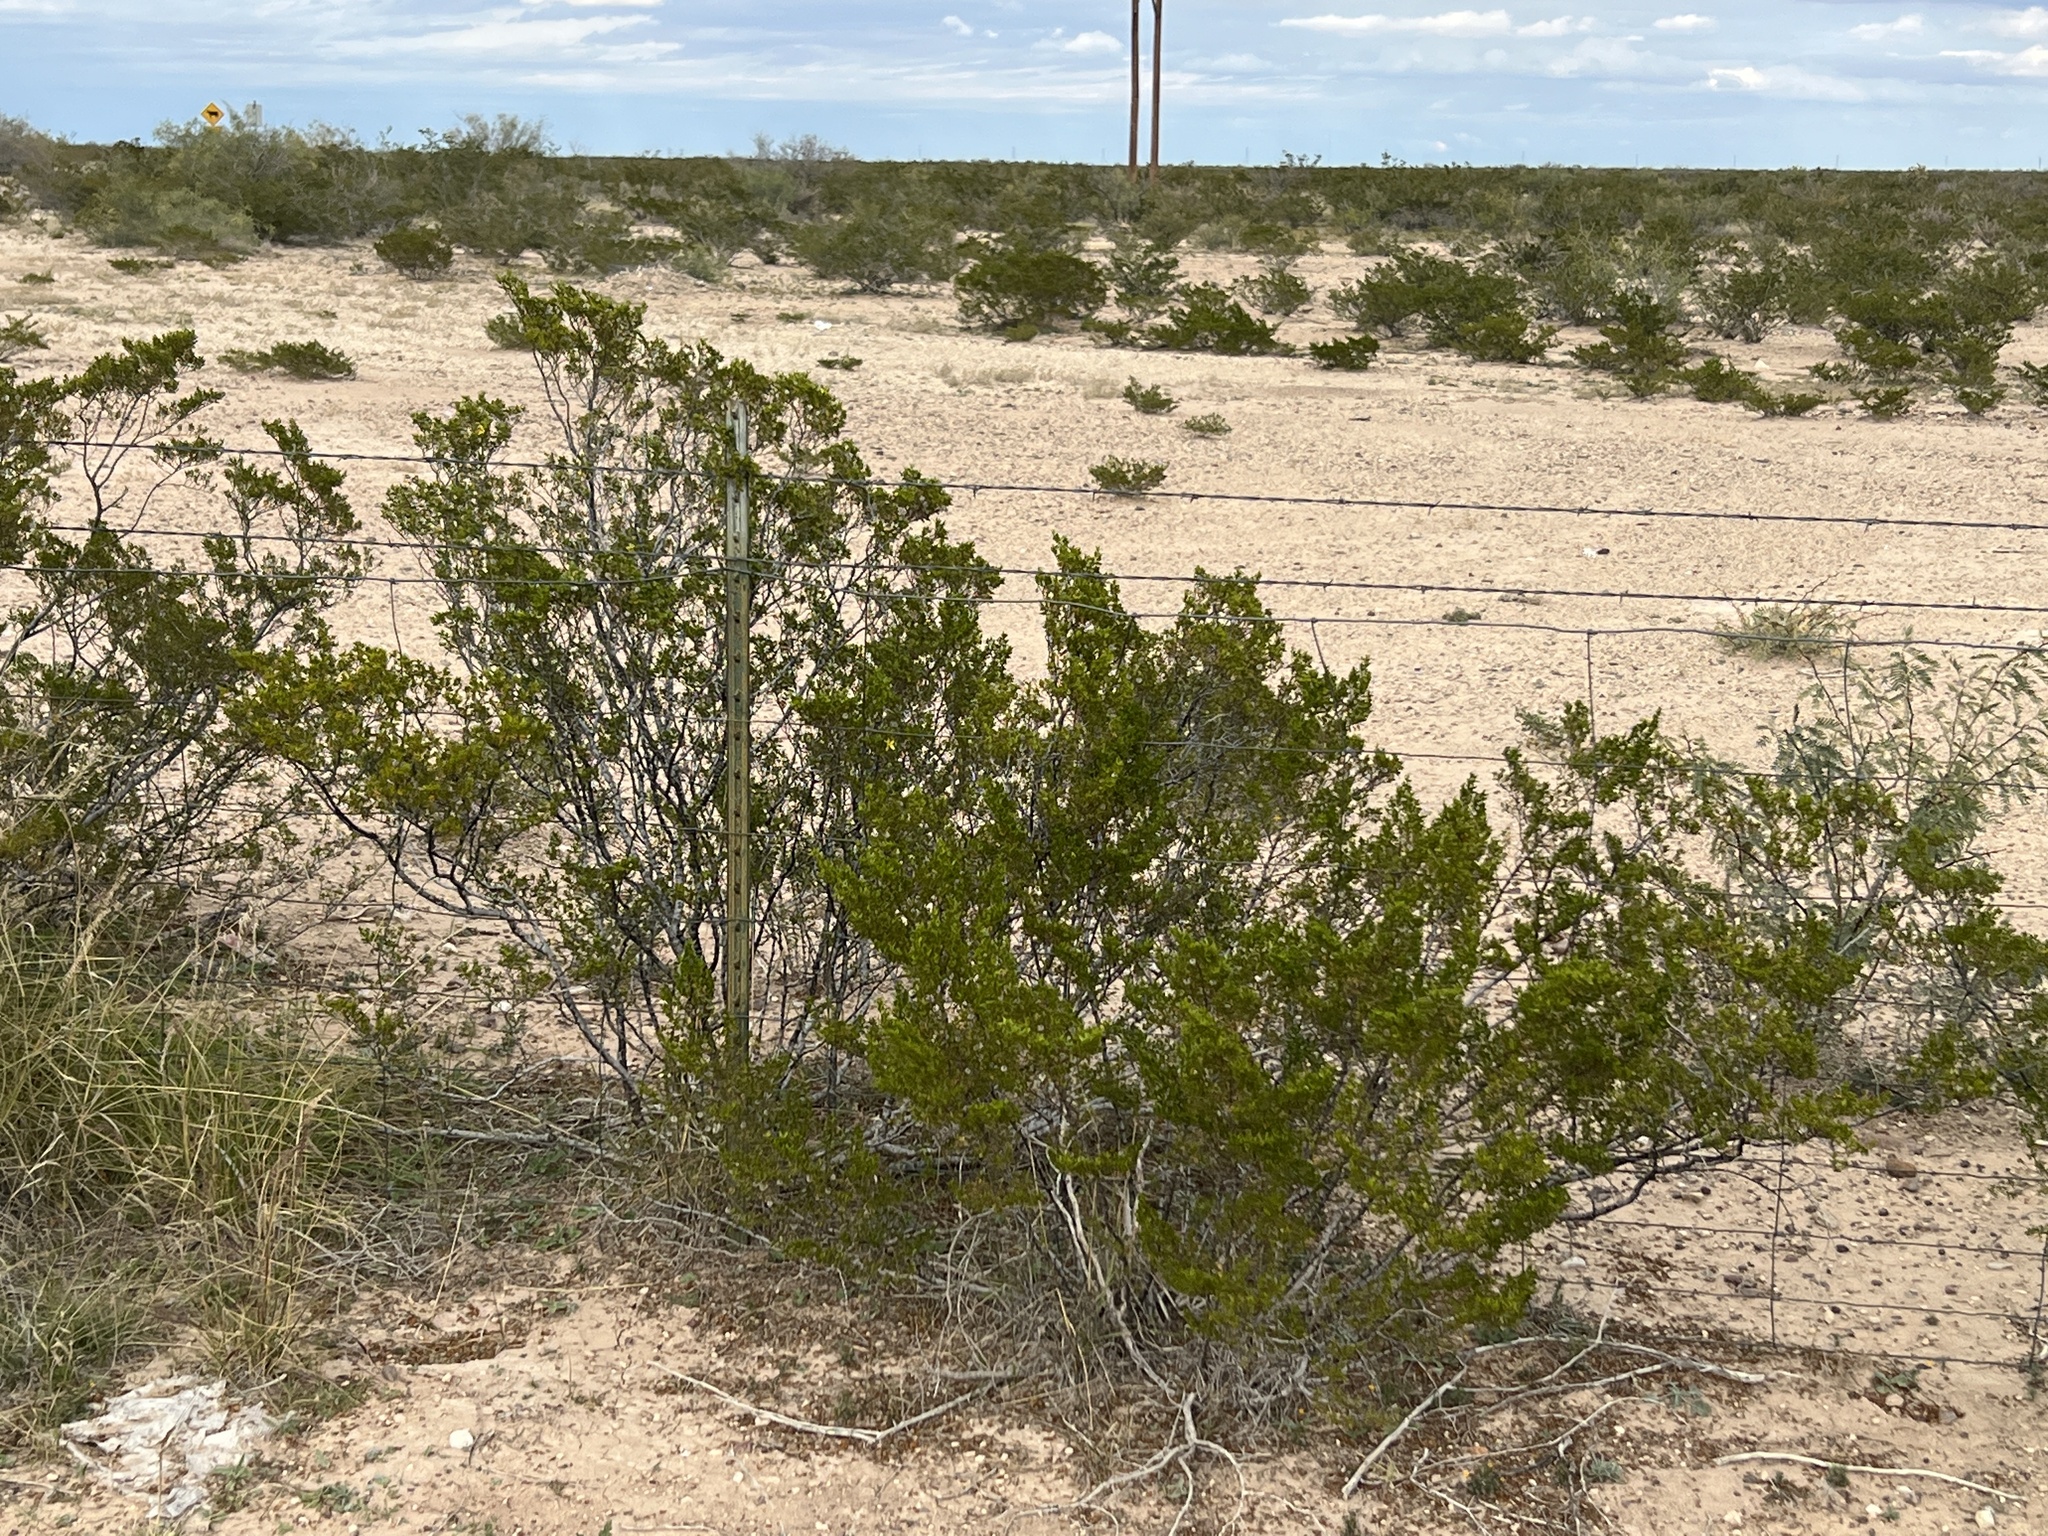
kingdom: Plantae
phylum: Tracheophyta
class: Magnoliopsida
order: Zygophyllales
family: Zygophyllaceae
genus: Larrea
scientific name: Larrea tridentata
